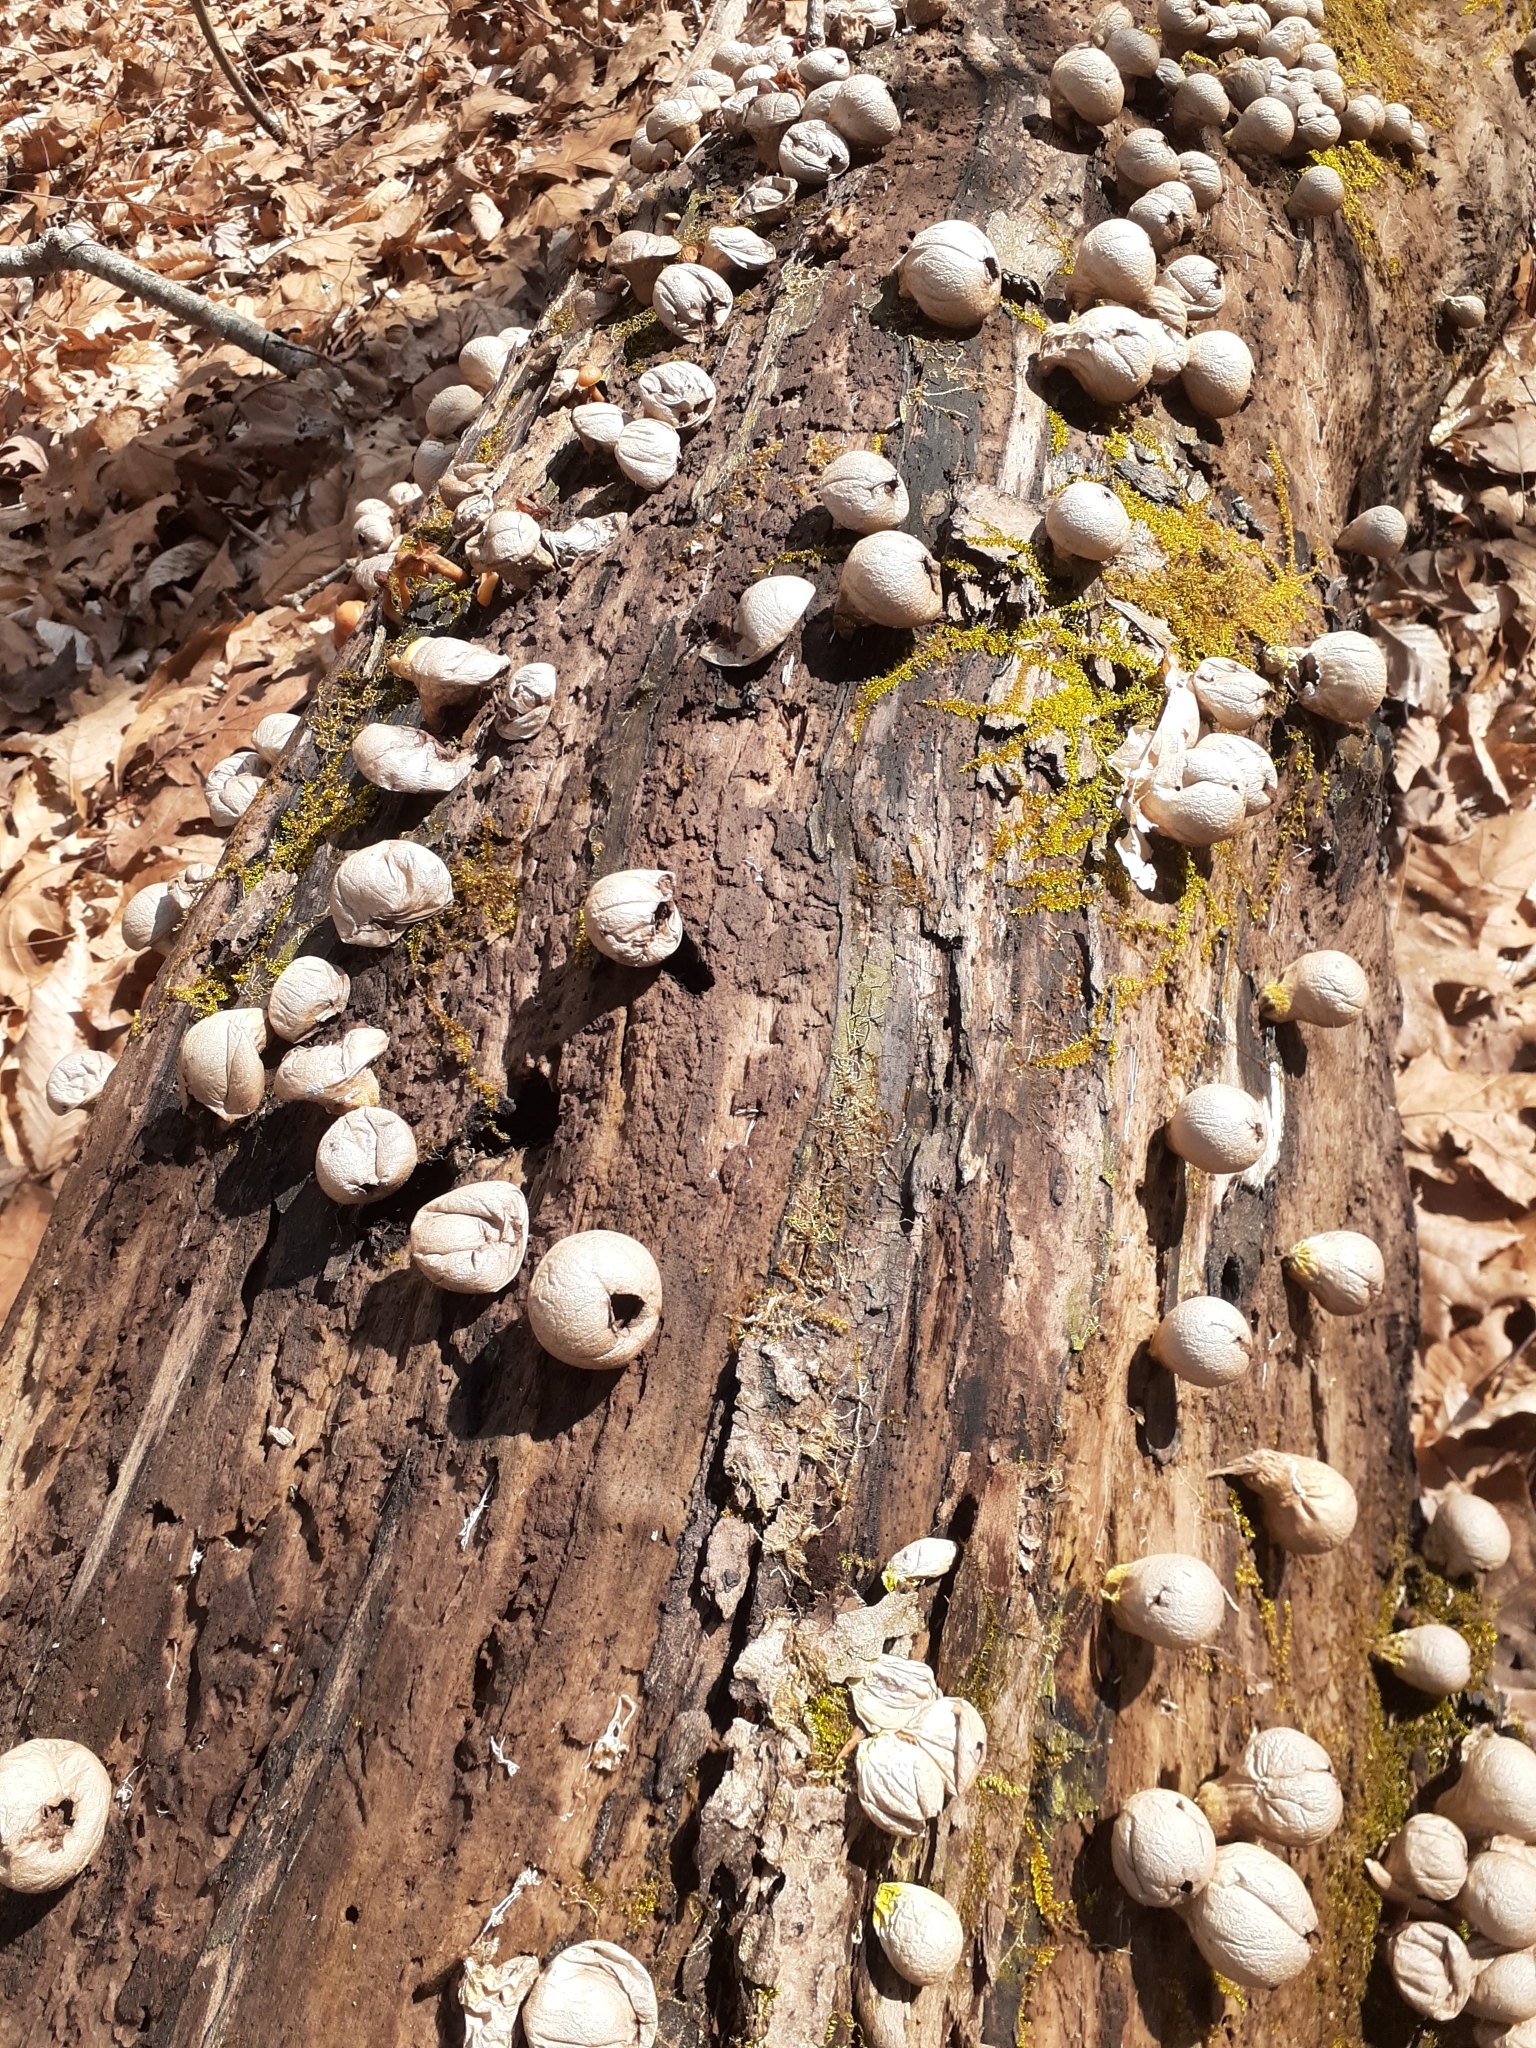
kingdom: Fungi
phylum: Basidiomycota
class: Agaricomycetes
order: Agaricales
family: Lycoperdaceae
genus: Apioperdon
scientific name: Apioperdon pyriforme
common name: Pear-shaped puffball
